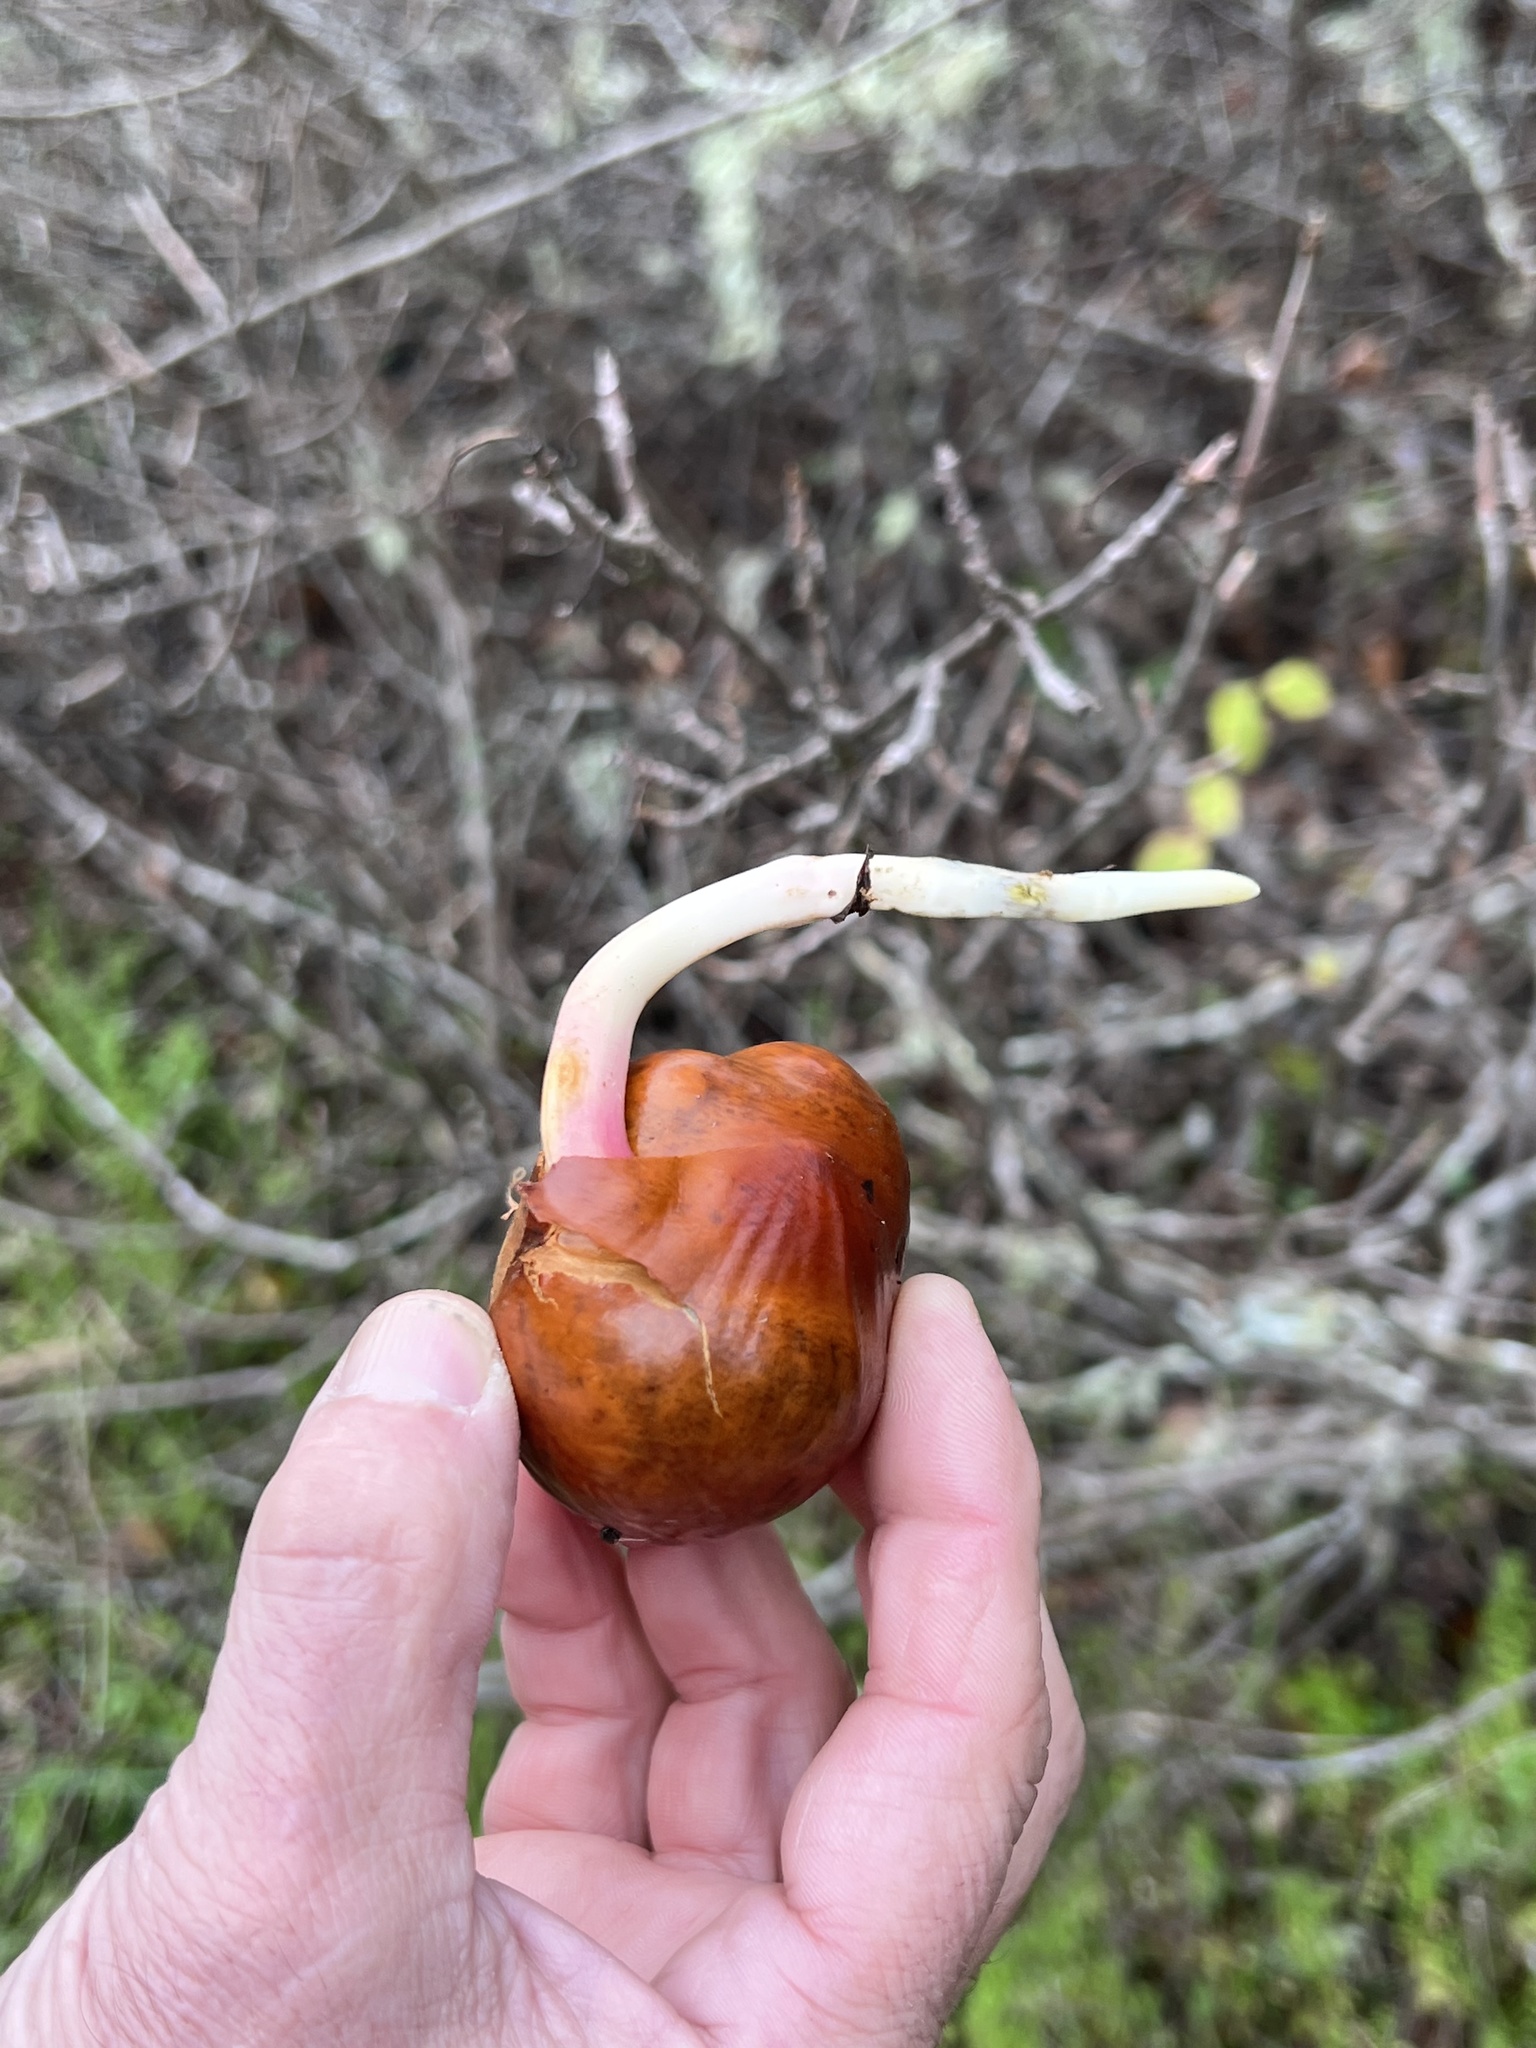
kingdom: Plantae
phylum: Tracheophyta
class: Magnoliopsida
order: Sapindales
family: Sapindaceae
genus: Aesculus
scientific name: Aesculus californica
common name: California buckeye
